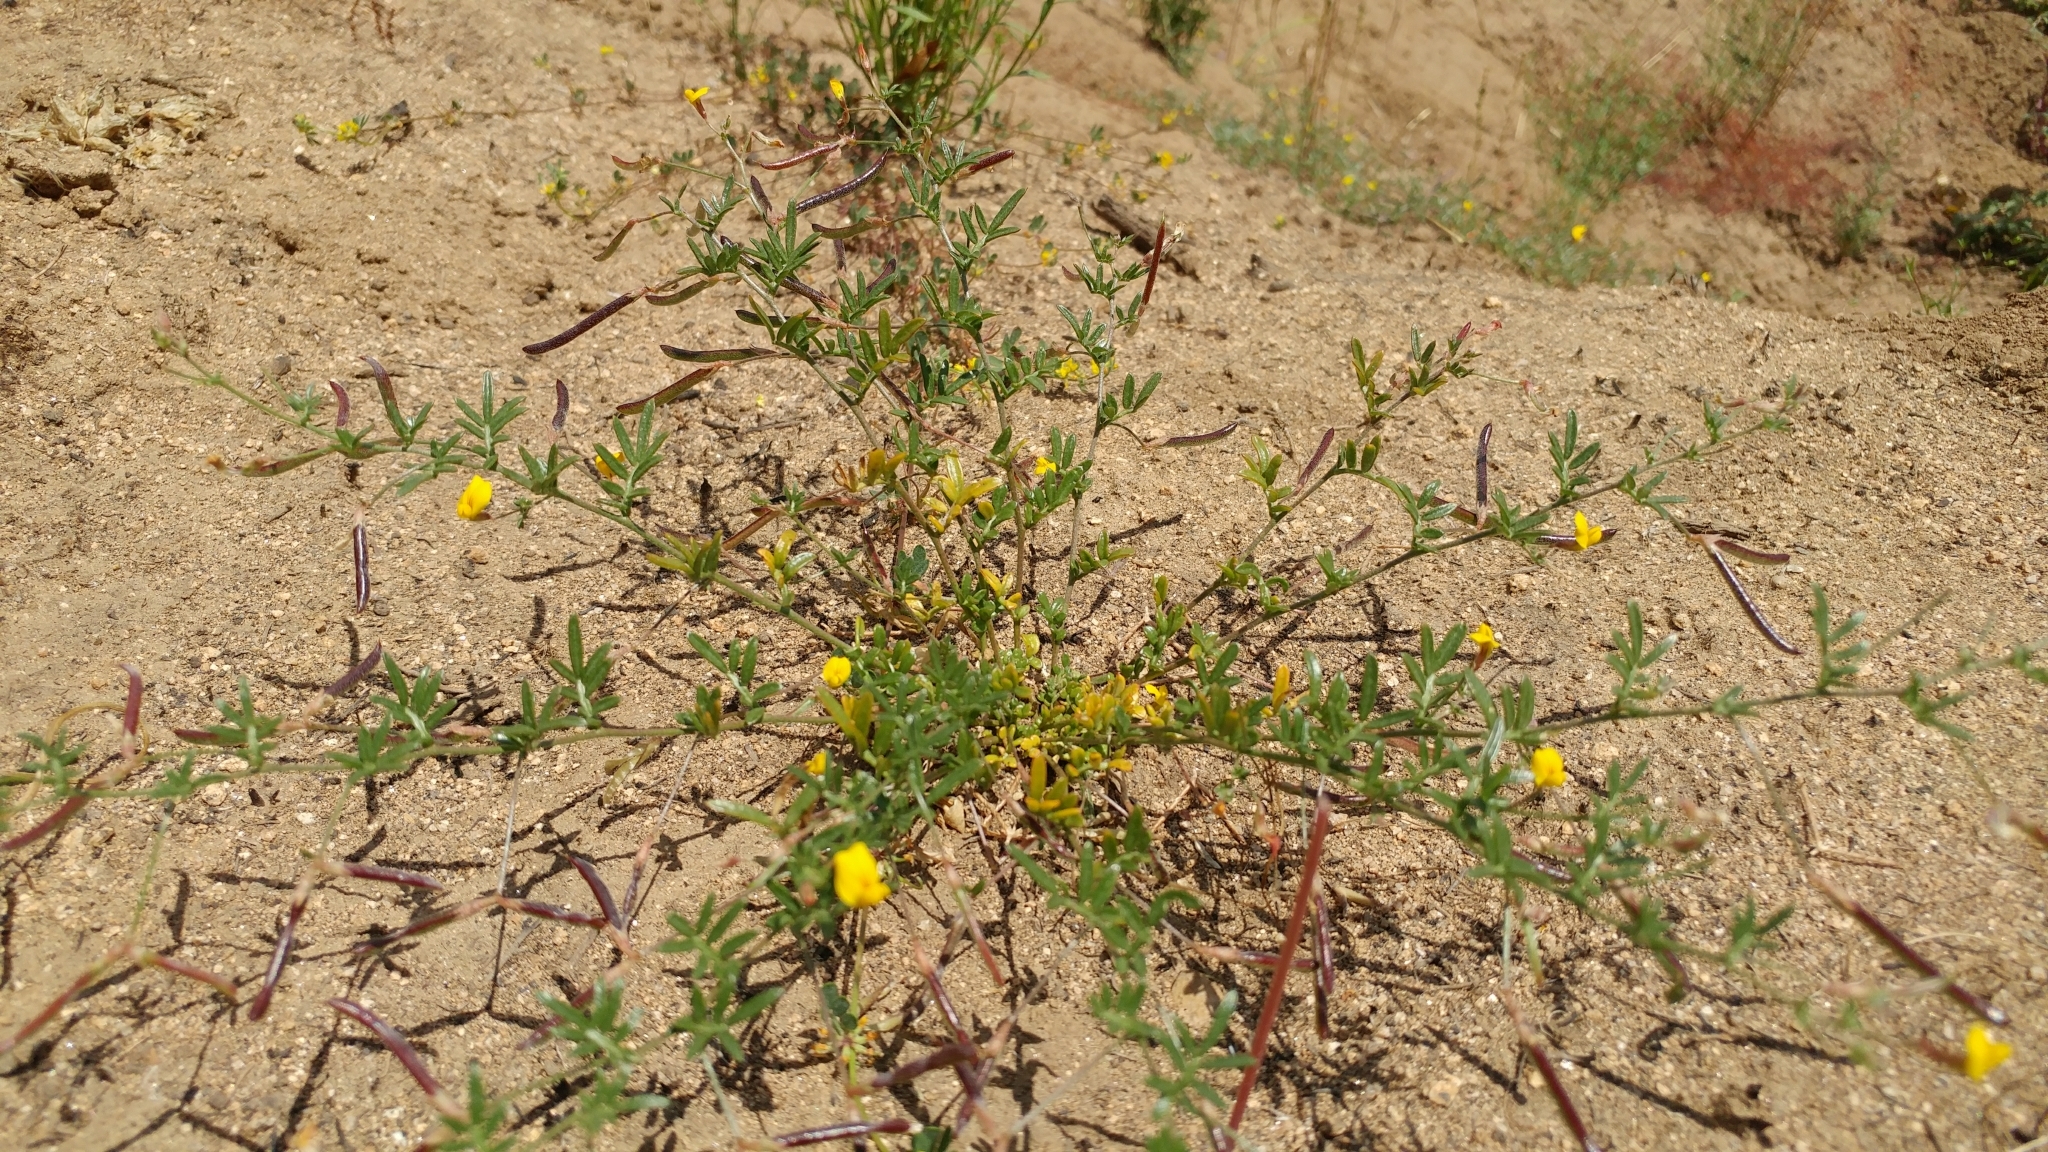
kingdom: Plantae
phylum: Tracheophyta
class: Magnoliopsida
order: Fabales
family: Fabaceae
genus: Acmispon
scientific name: Acmispon strigosus
